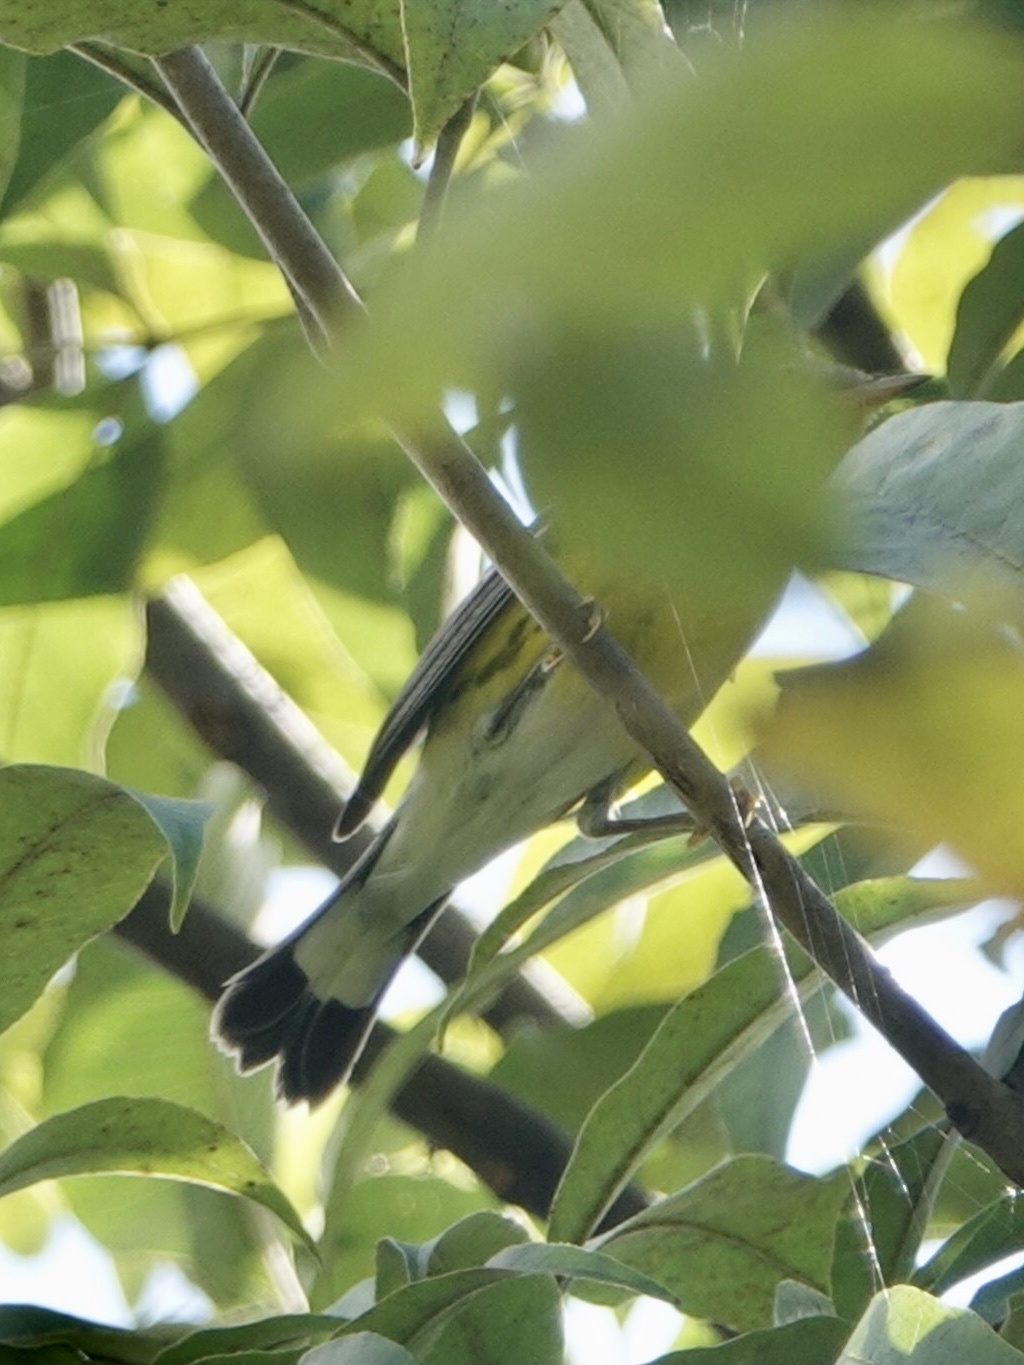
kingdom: Animalia
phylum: Chordata
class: Aves
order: Passeriformes
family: Parulidae
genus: Setophaga
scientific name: Setophaga magnolia
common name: Magnolia warbler
